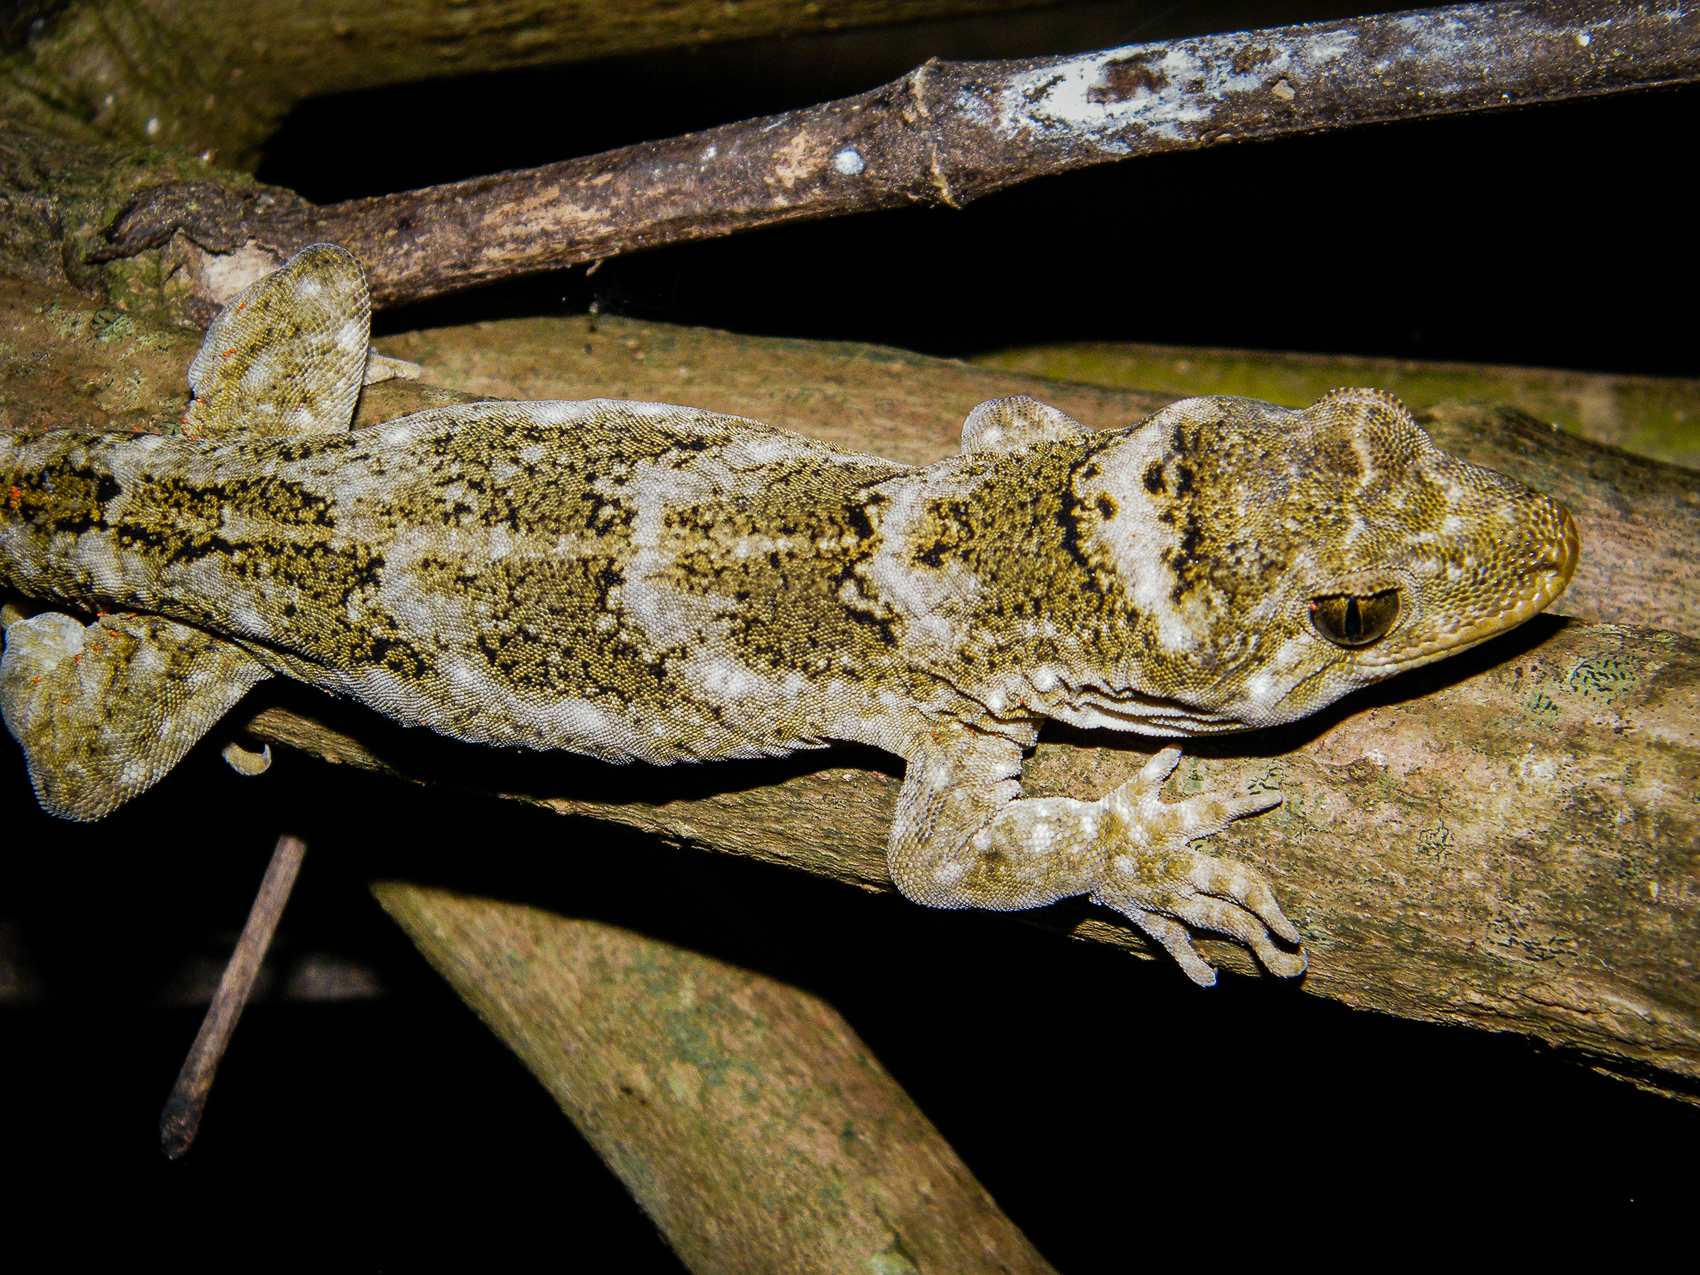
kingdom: Animalia
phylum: Chordata
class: Squamata
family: Diplodactylidae
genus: Hoplodactylus
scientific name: Hoplodactylus tohu
